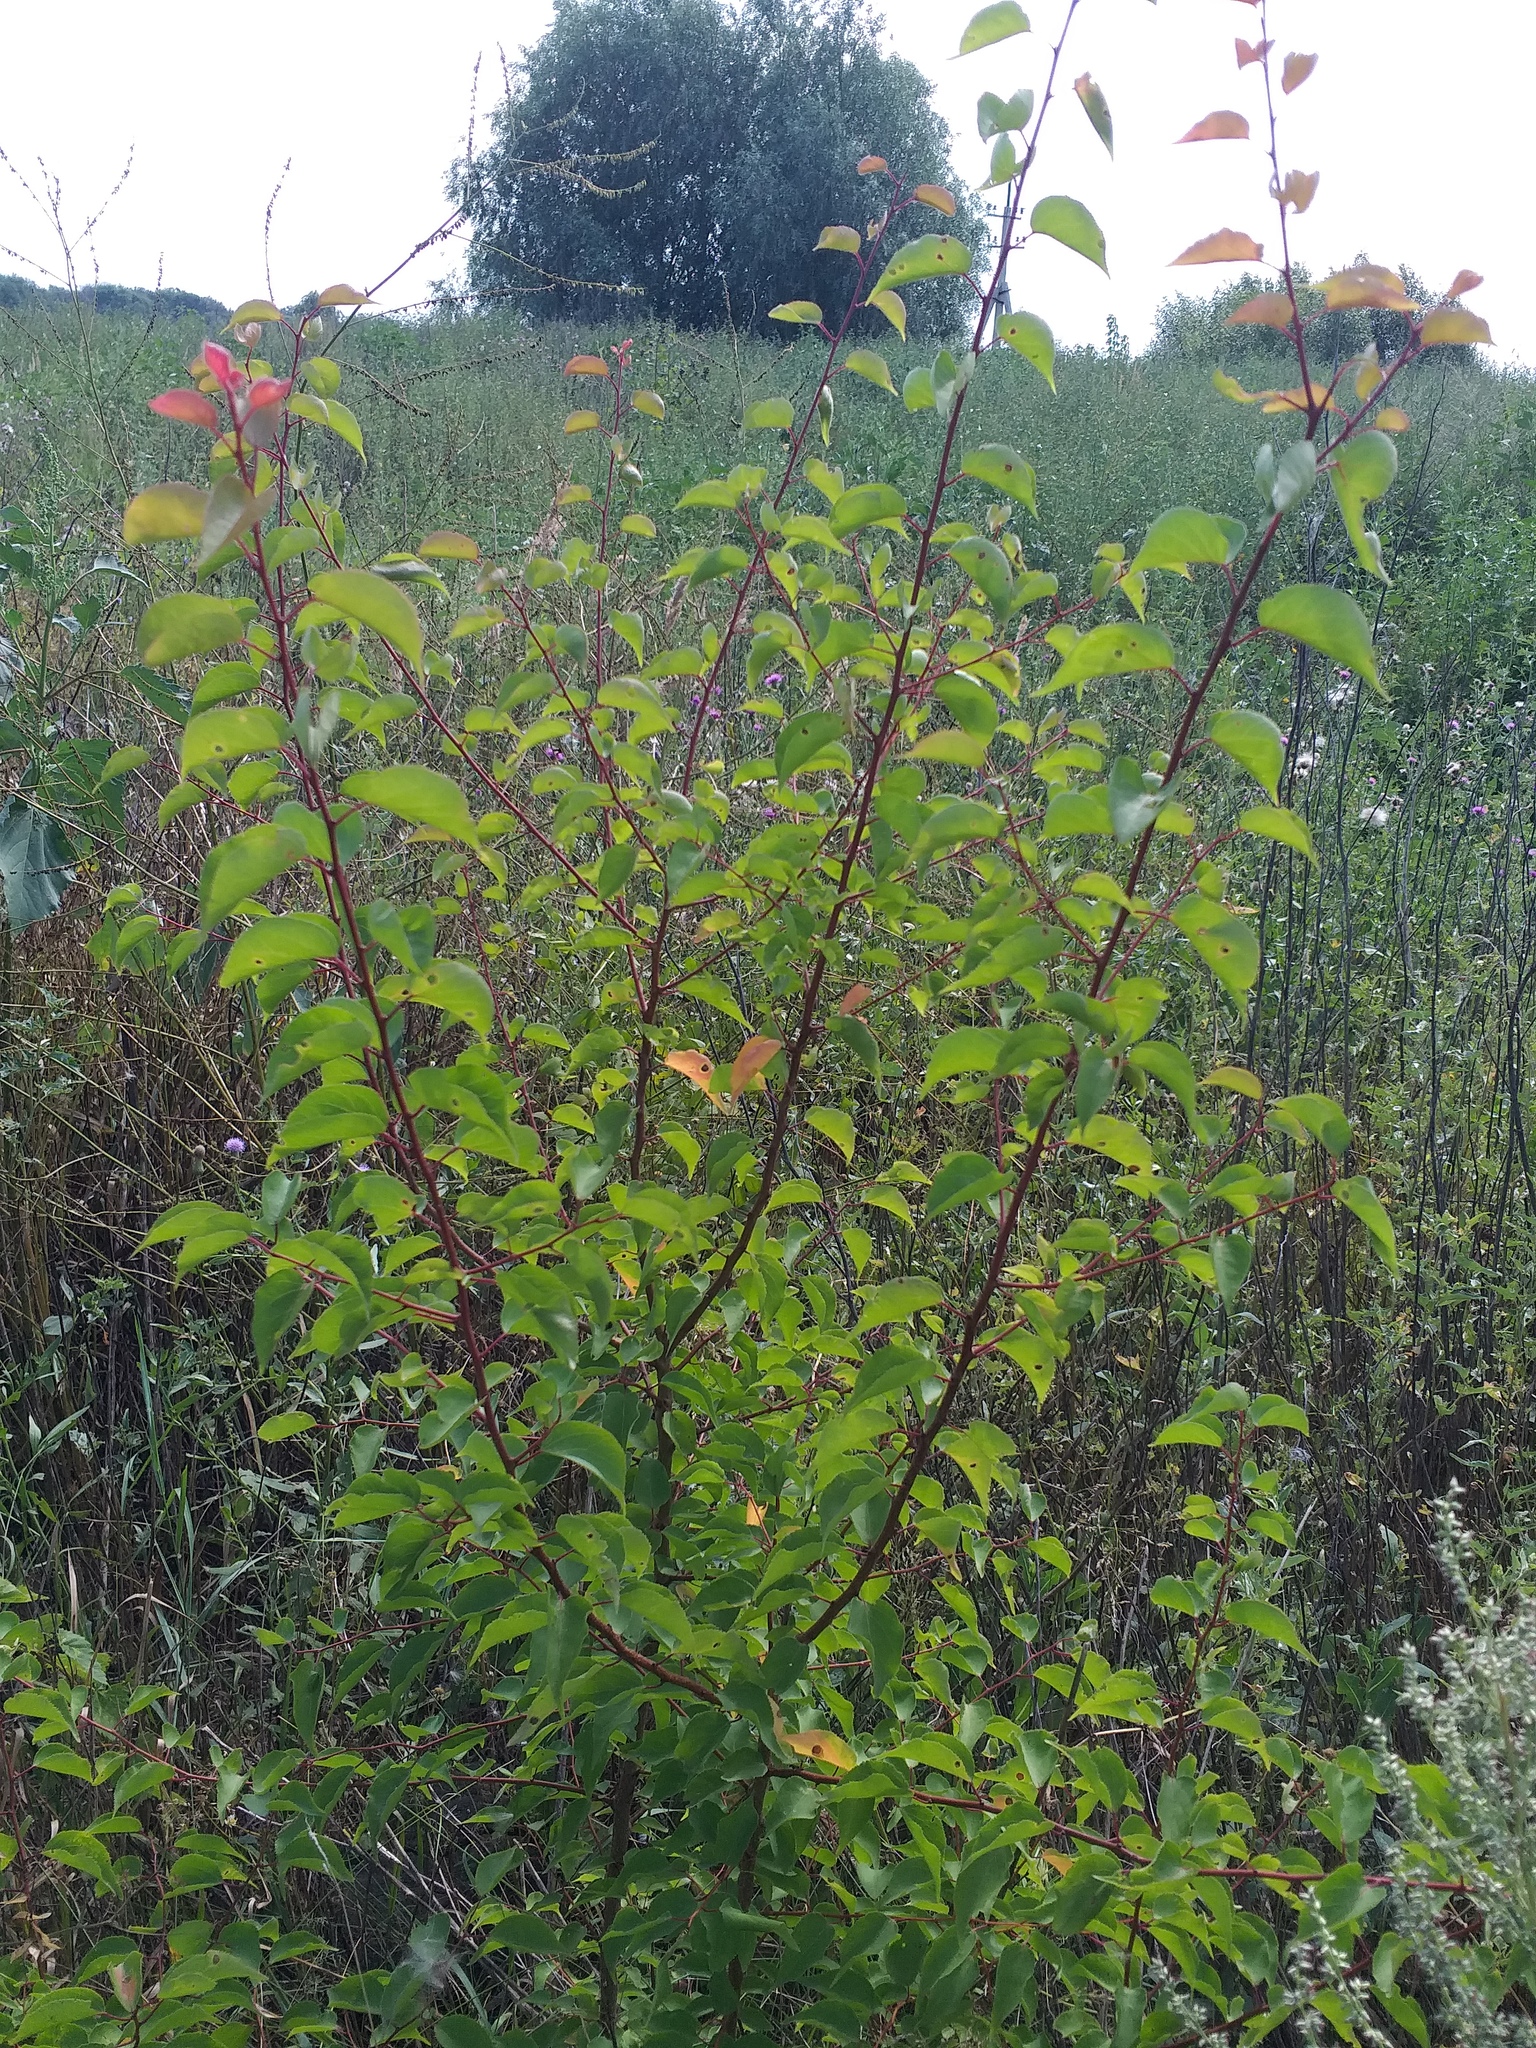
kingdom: Plantae
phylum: Tracheophyta
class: Magnoliopsida
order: Rosales
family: Rosaceae
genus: Prunus
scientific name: Prunus armeniaca
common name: Apricot
